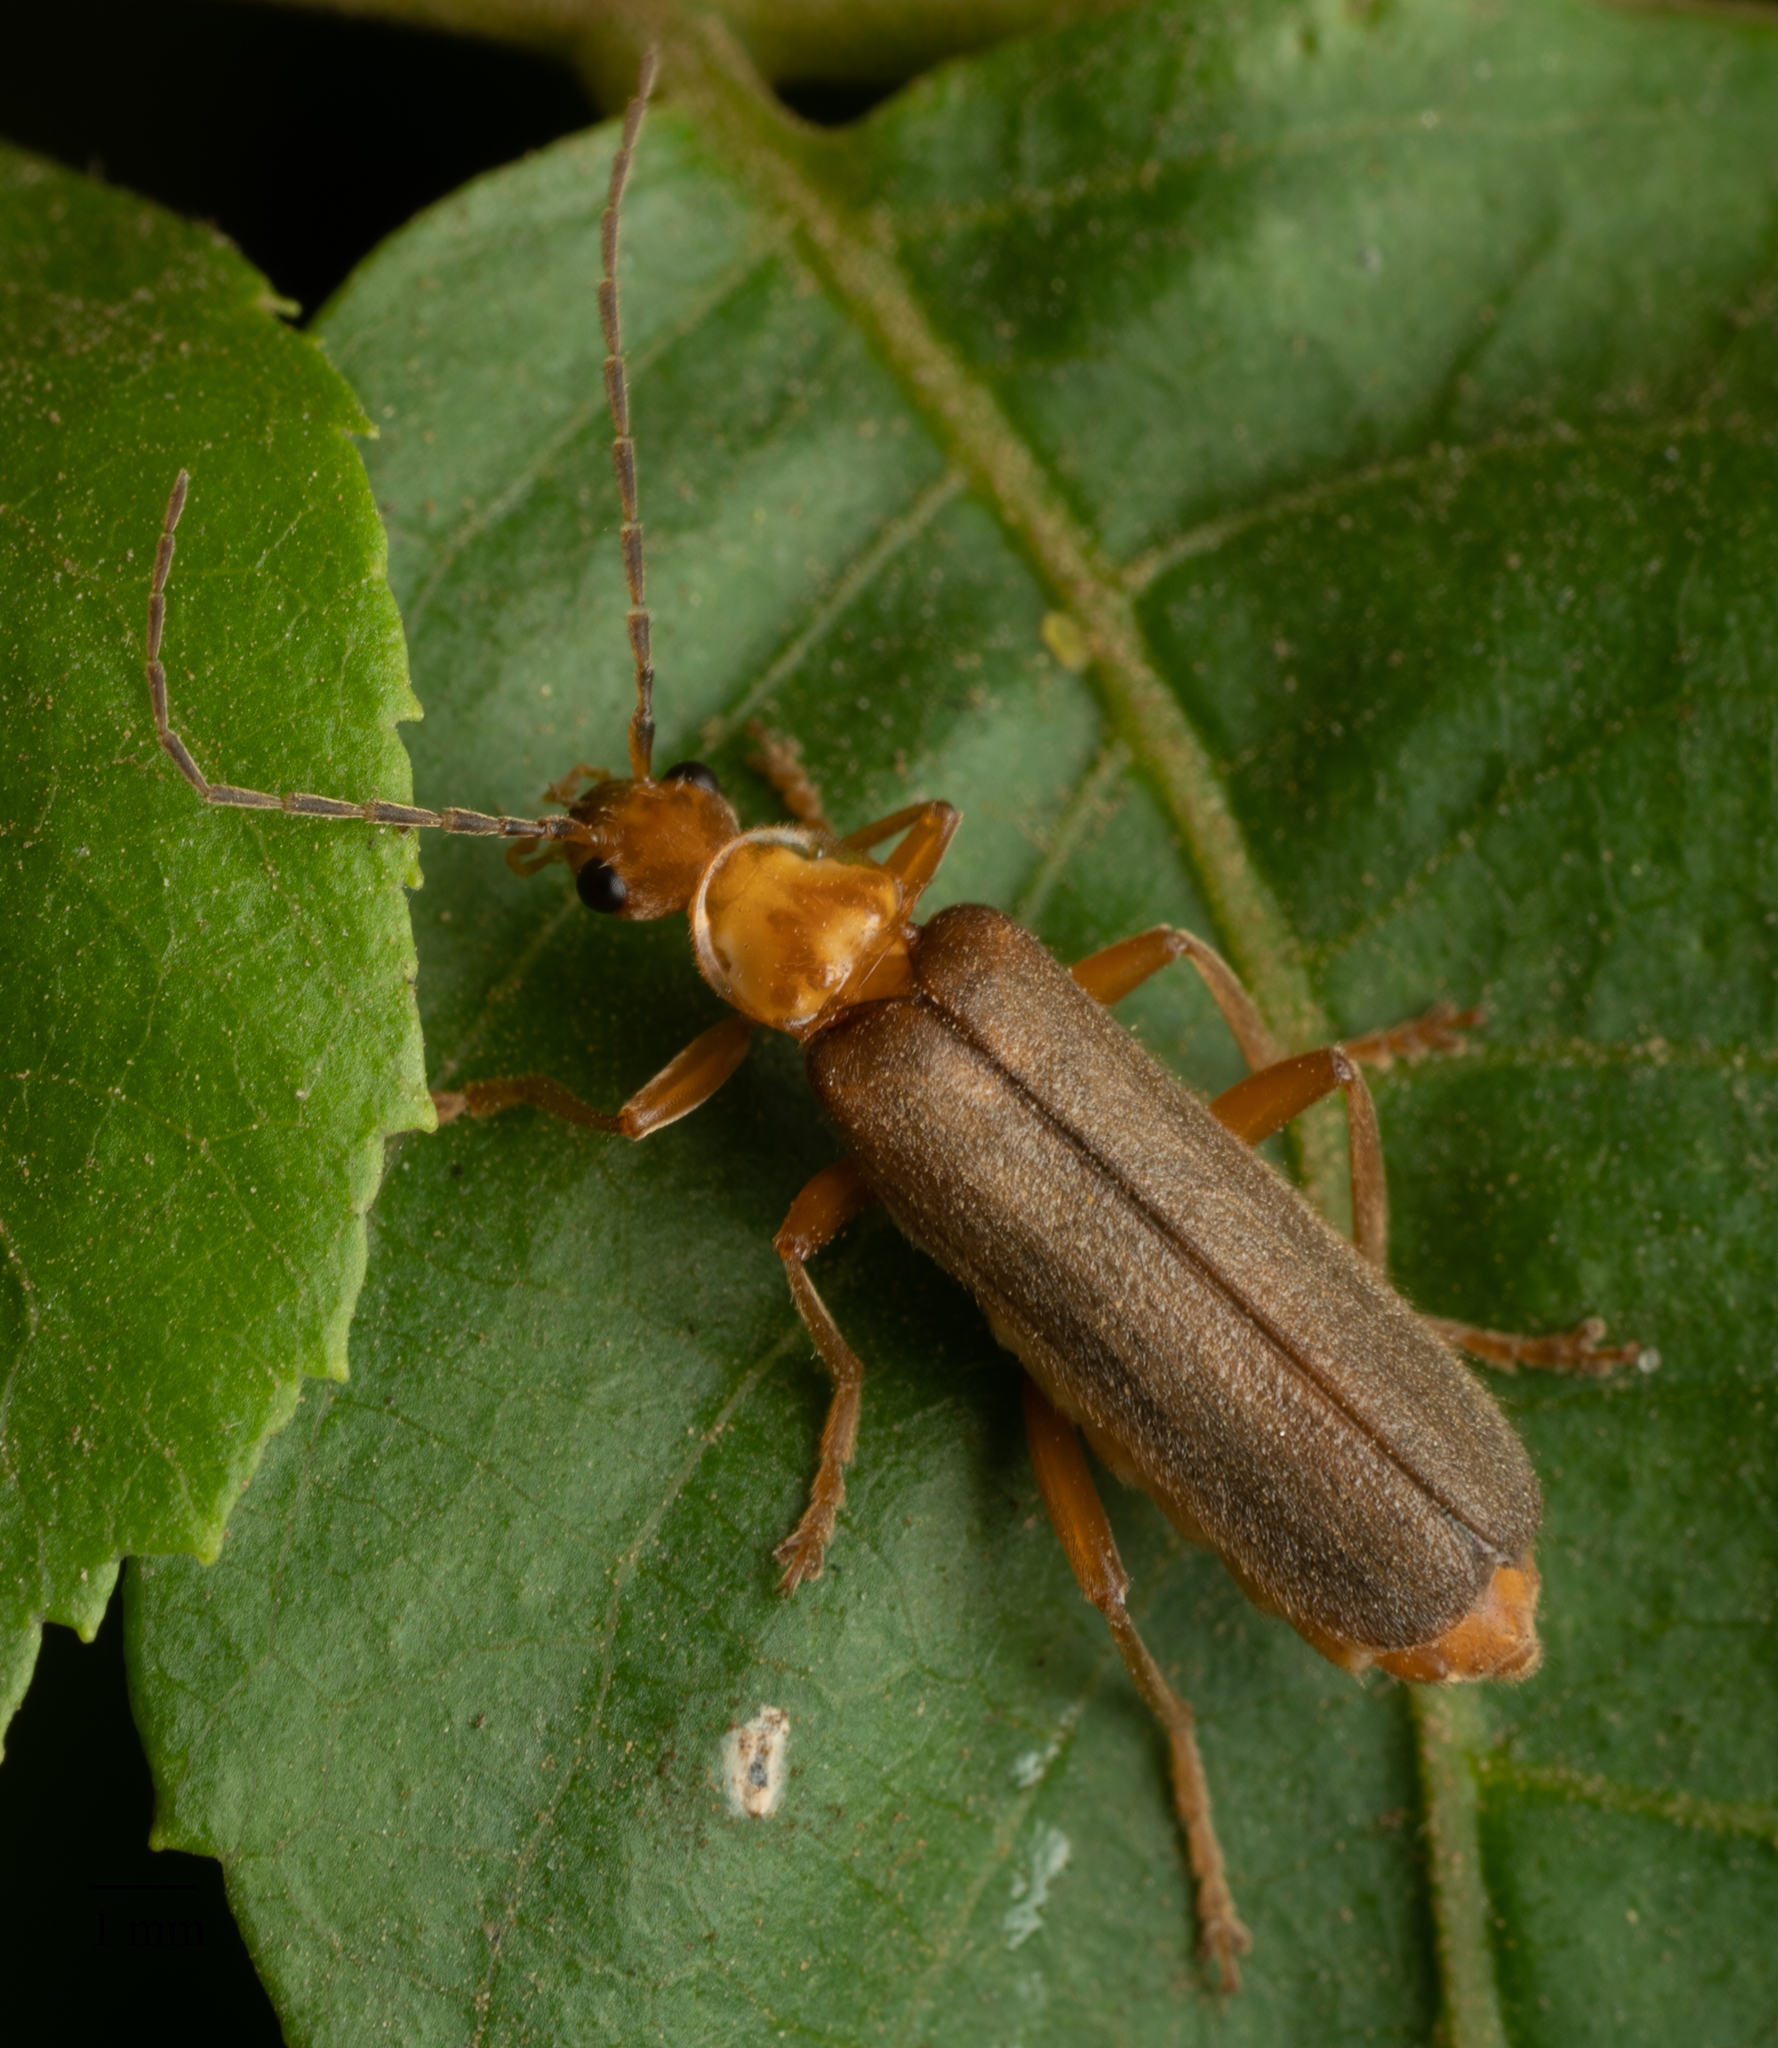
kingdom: Animalia
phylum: Arthropoda
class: Insecta
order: Coleoptera
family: Cantharidae
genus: Cultellunguis
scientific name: Cultellunguis perpallens
